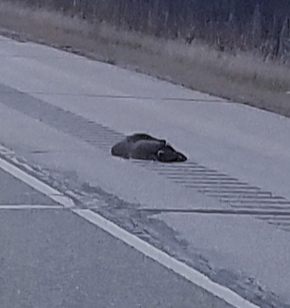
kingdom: Animalia
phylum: Chordata
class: Mammalia
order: Carnivora
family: Procyonidae
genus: Procyon
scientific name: Procyon lotor
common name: Raccoon
